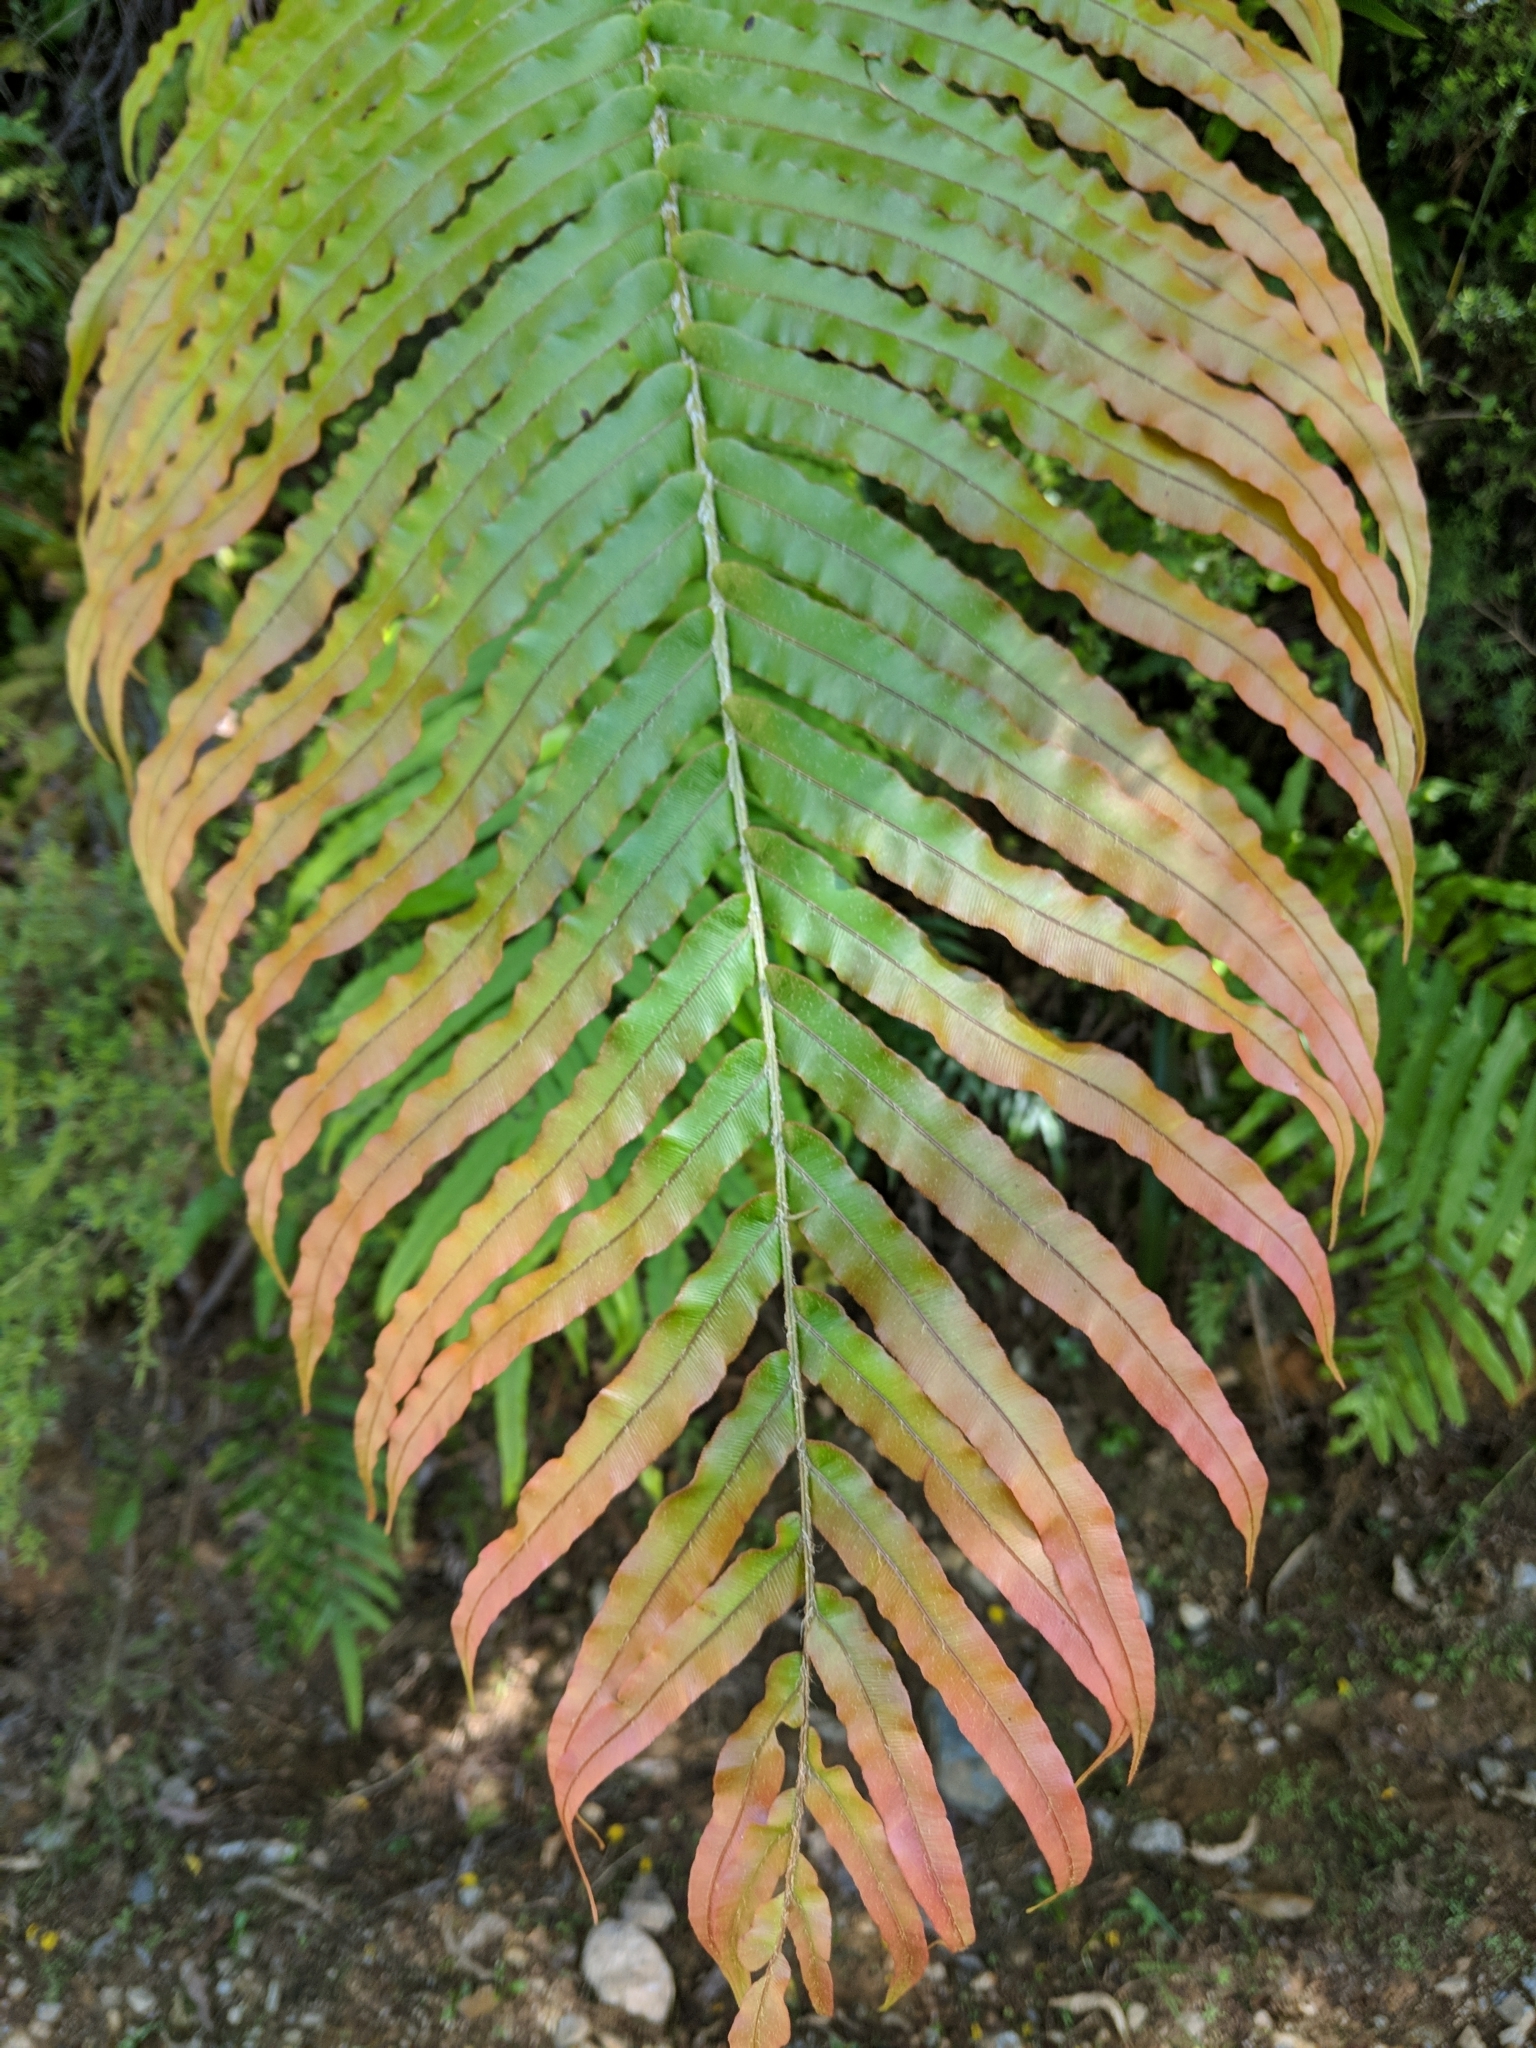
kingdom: Plantae
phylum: Tracheophyta
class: Polypodiopsida
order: Polypodiales
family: Blechnaceae
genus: Parablechnum
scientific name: Parablechnum novae-zelandiae
